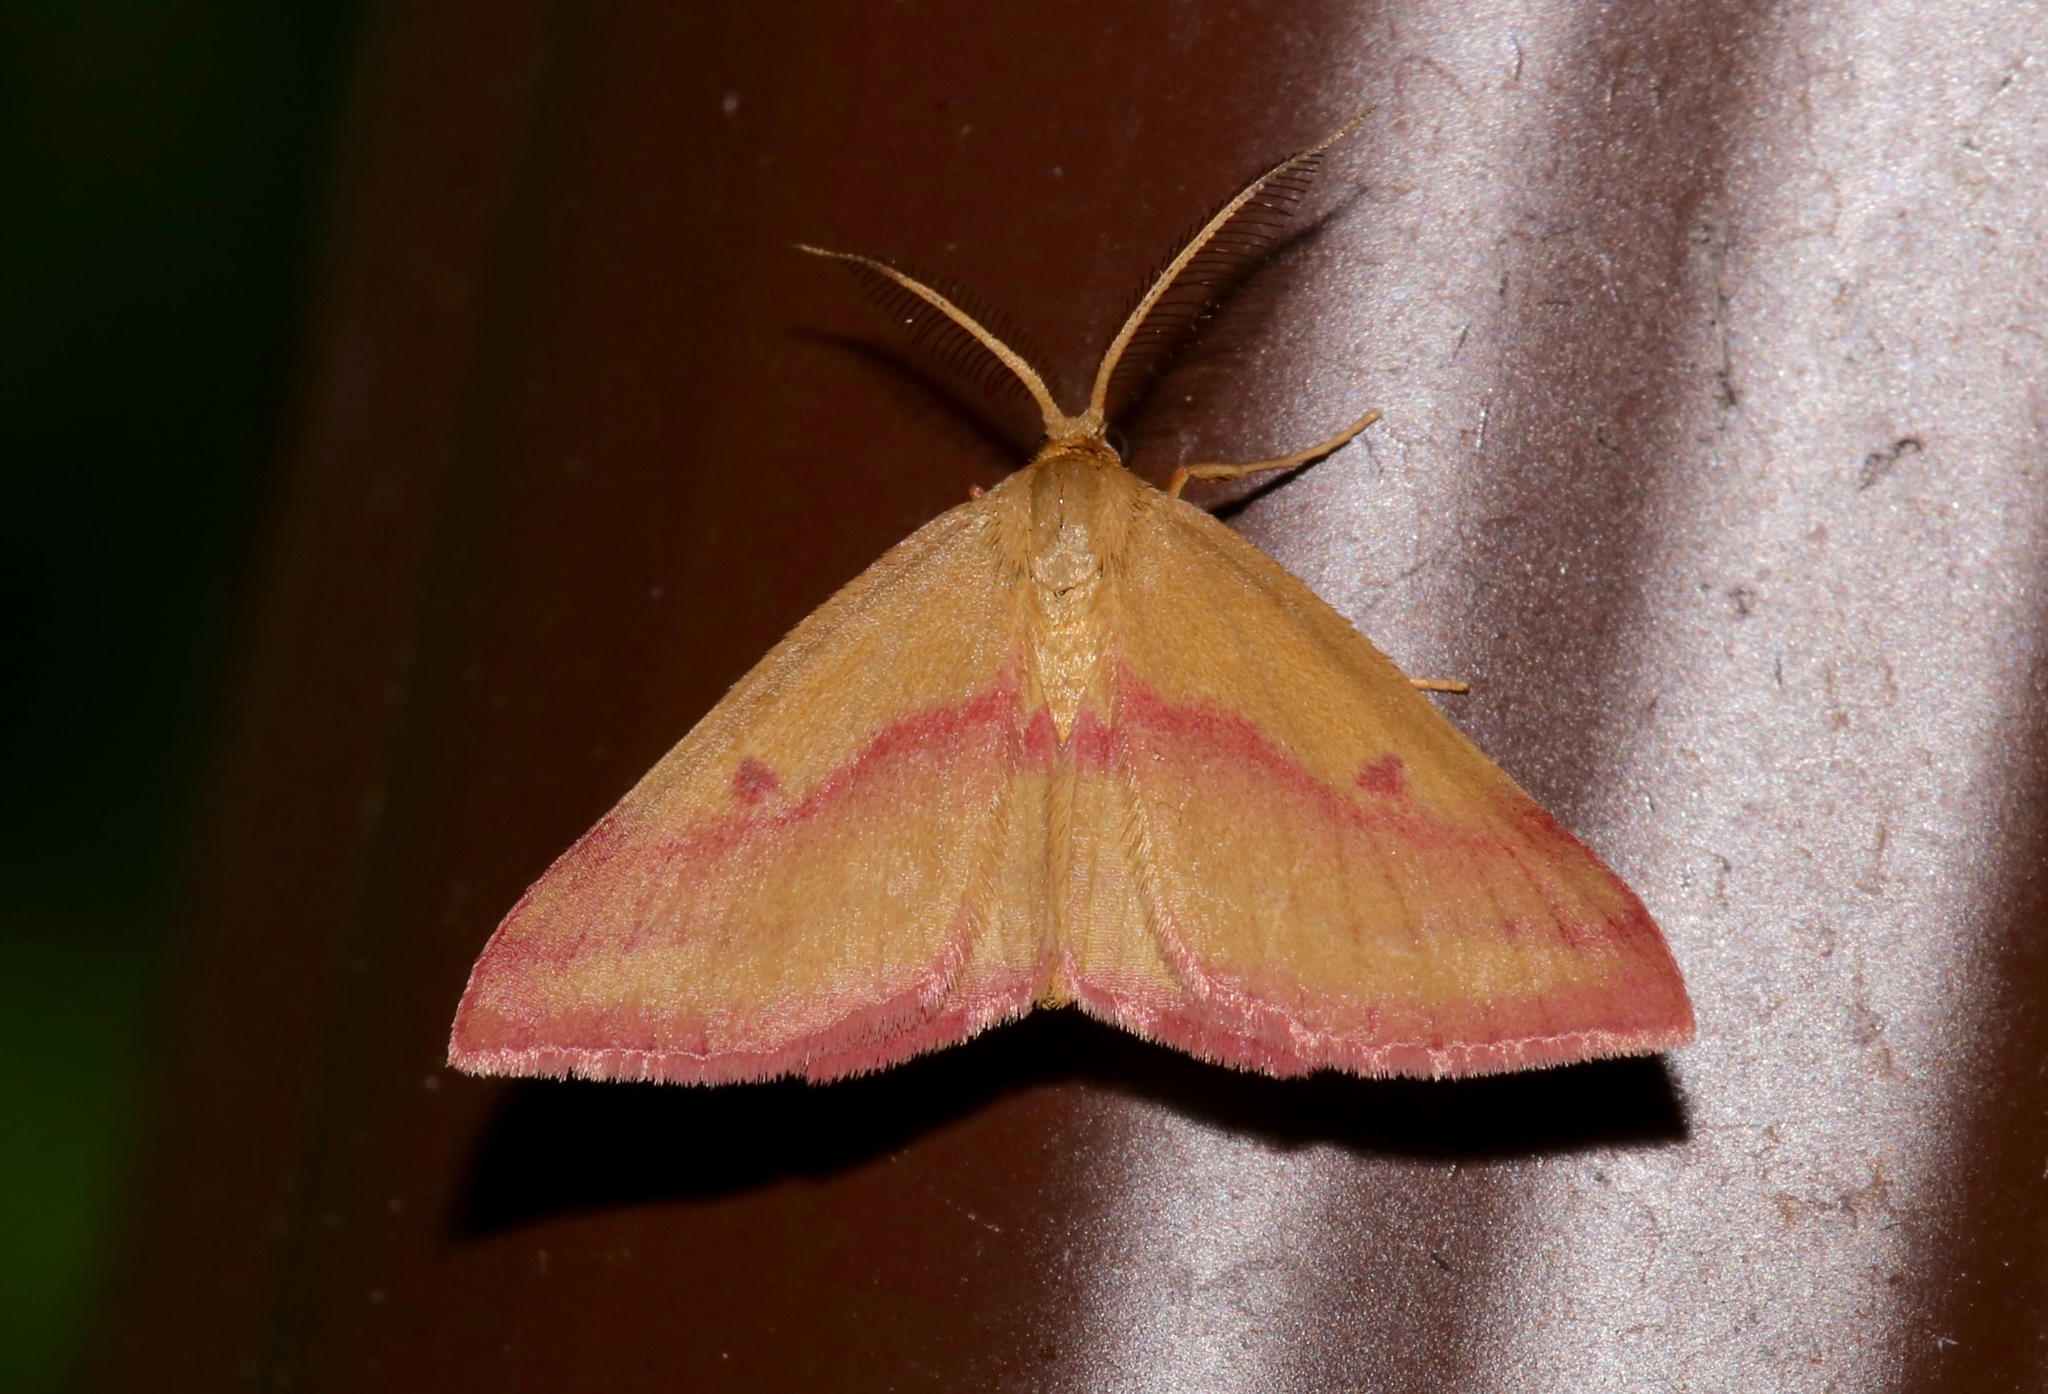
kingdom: Animalia
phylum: Arthropoda
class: Insecta
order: Lepidoptera
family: Geometridae
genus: Haematopis
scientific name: Haematopis grataria
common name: Chickweed geometer
